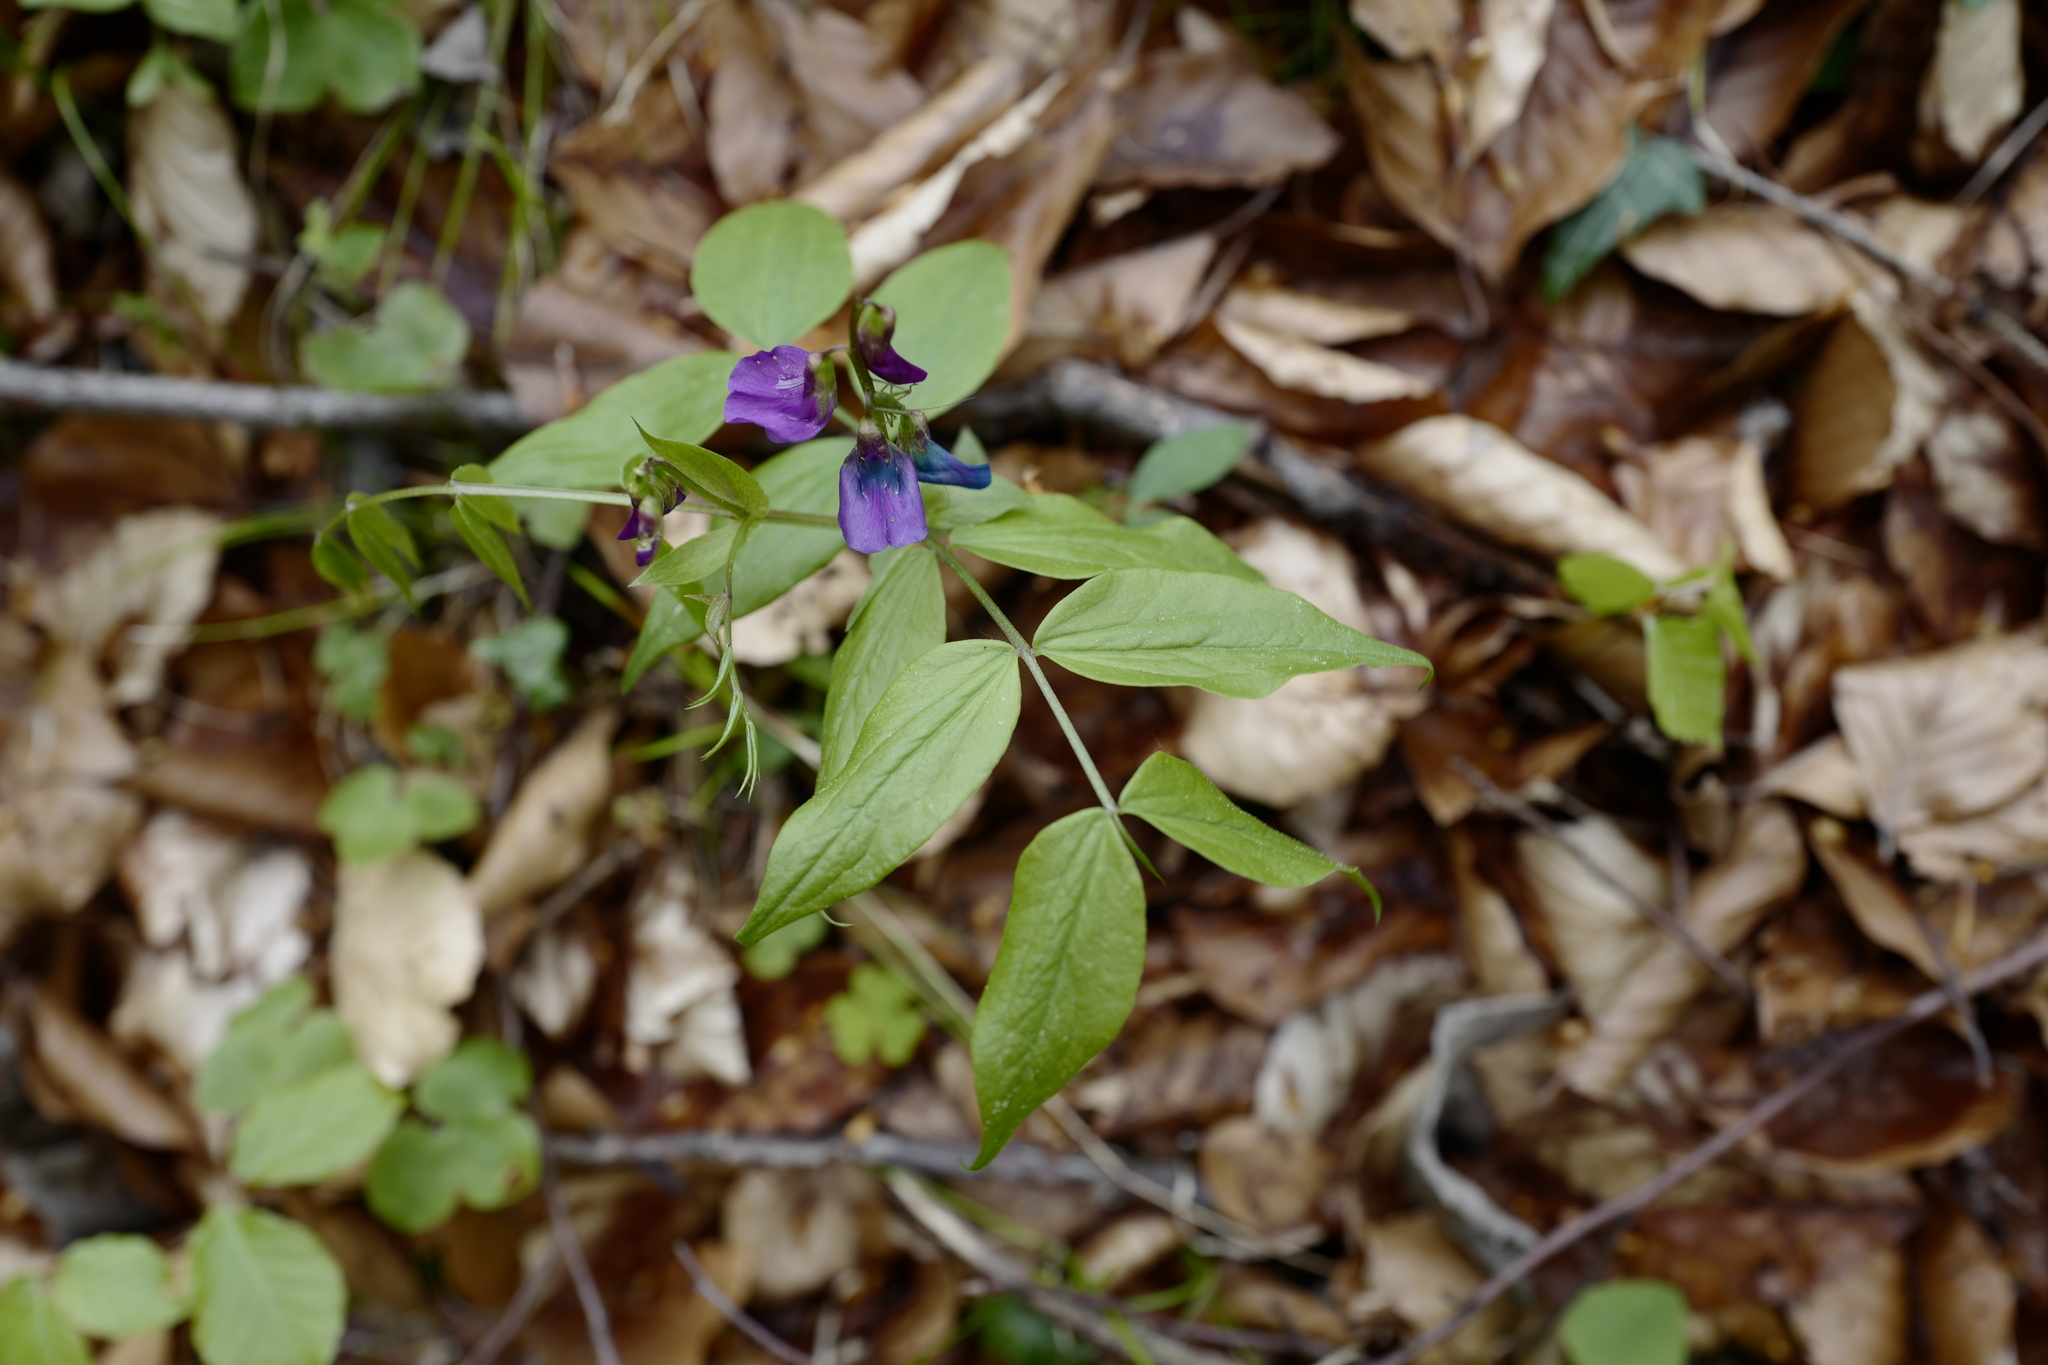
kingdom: Plantae
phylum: Tracheophyta
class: Magnoliopsida
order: Fabales
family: Fabaceae
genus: Lathyrus
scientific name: Lathyrus vernus
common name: Spring pea
